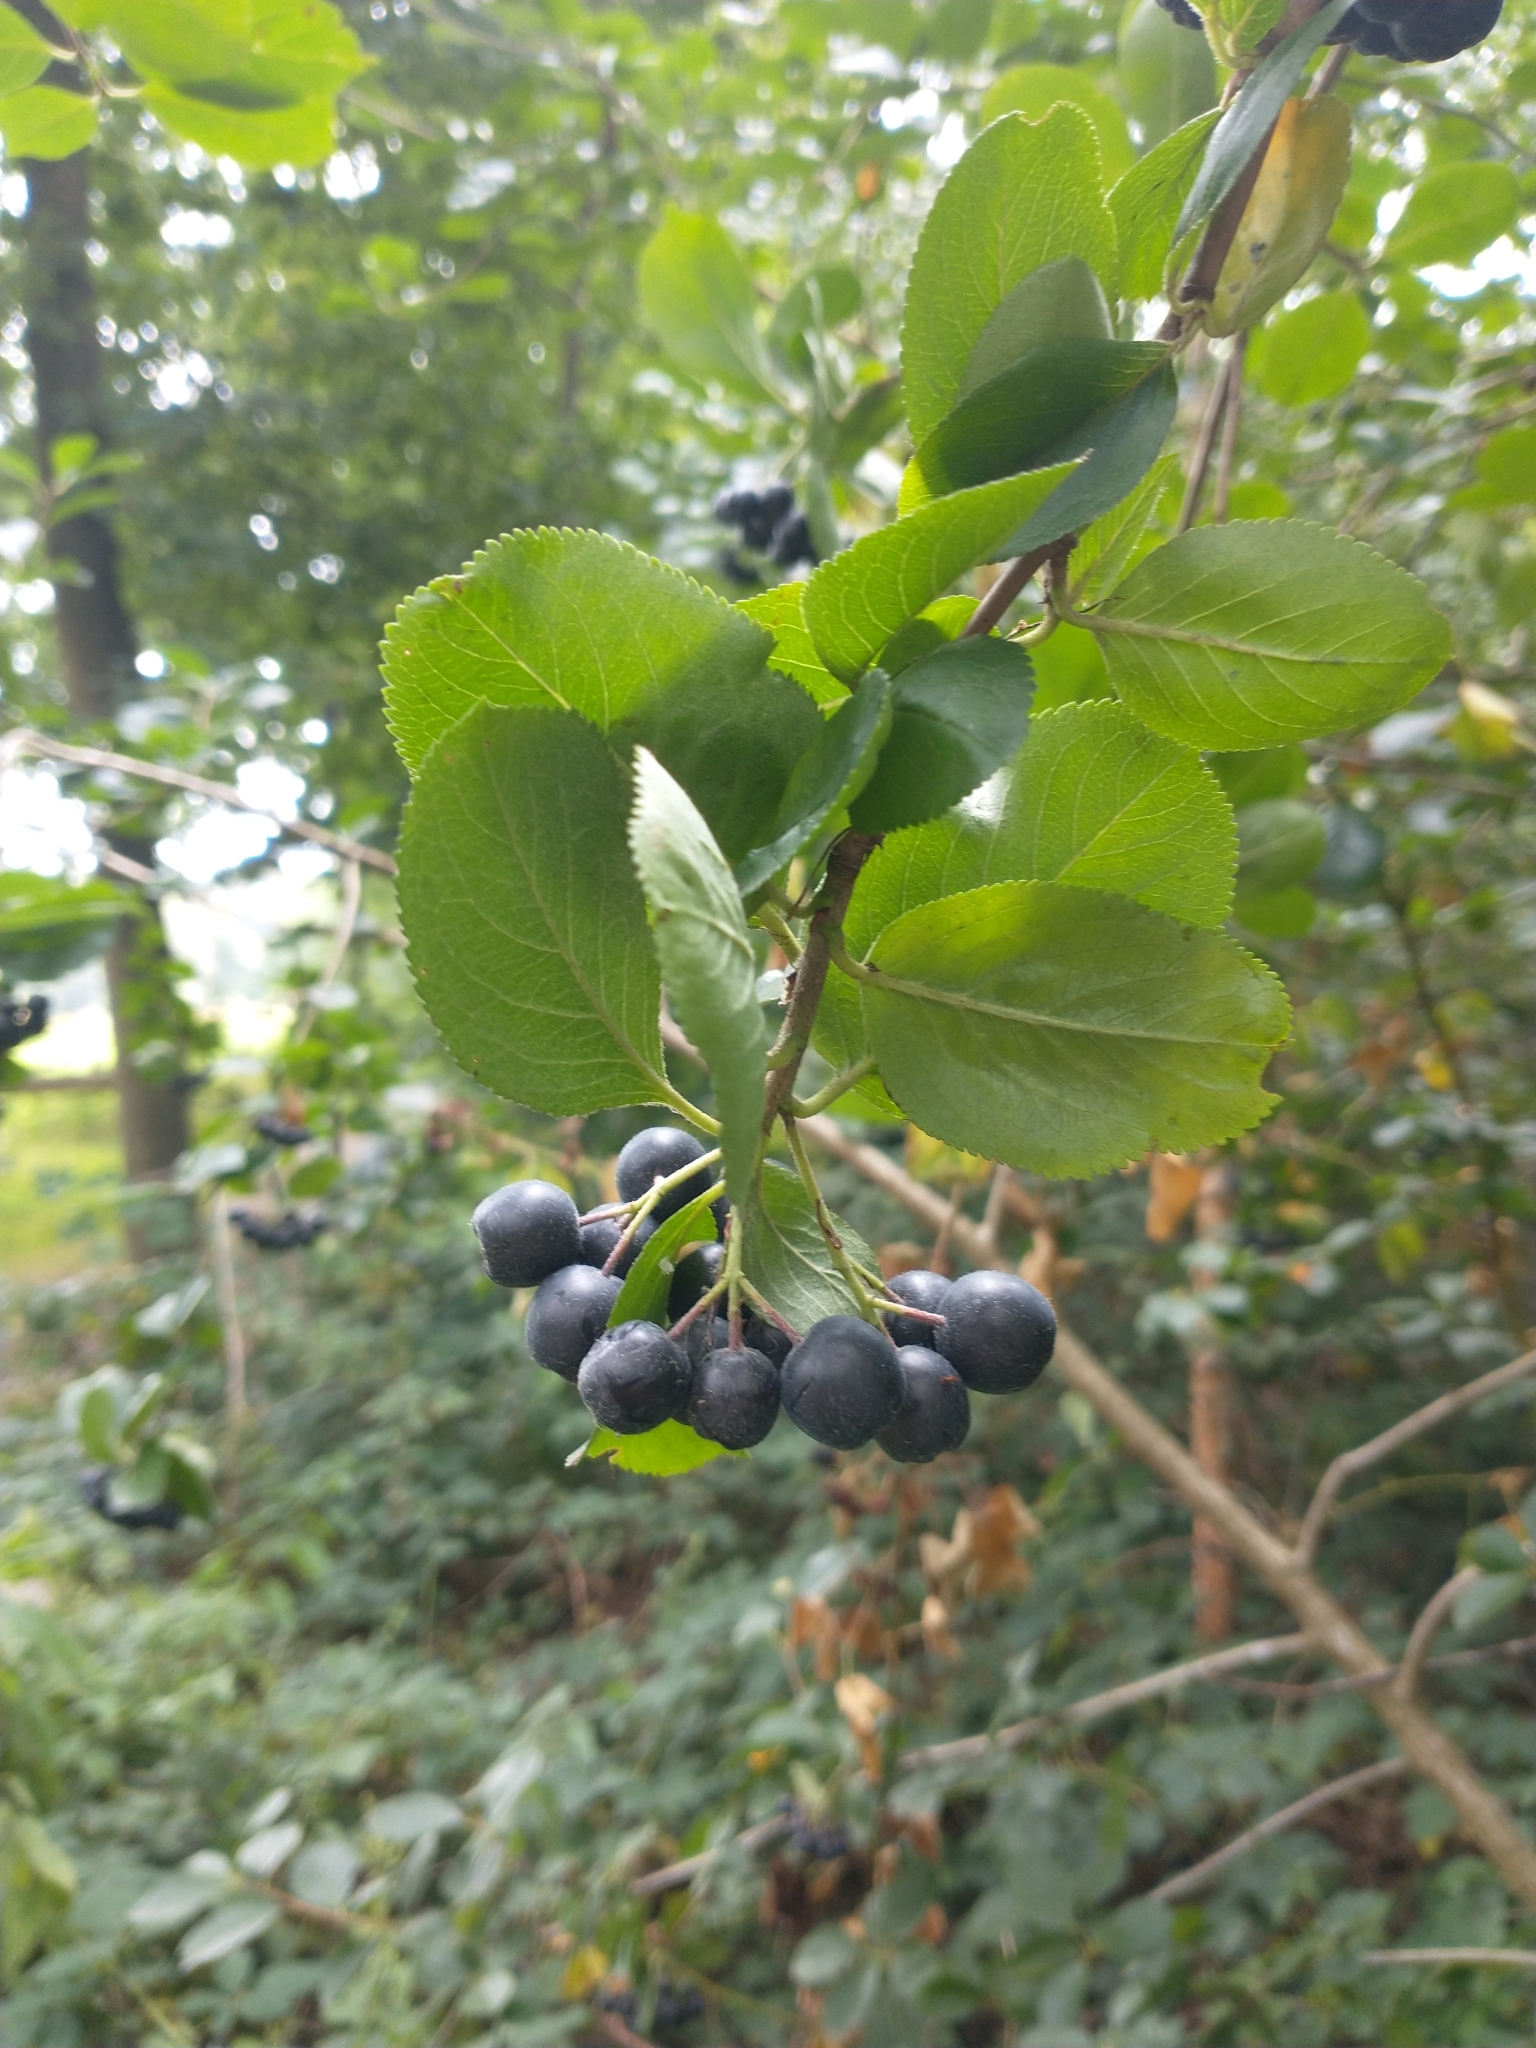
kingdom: Plantae
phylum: Tracheophyta
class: Magnoliopsida
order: Rosales
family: Rosaceae
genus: Aronia
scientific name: Aronia melanocarpa
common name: Black chokeberry
